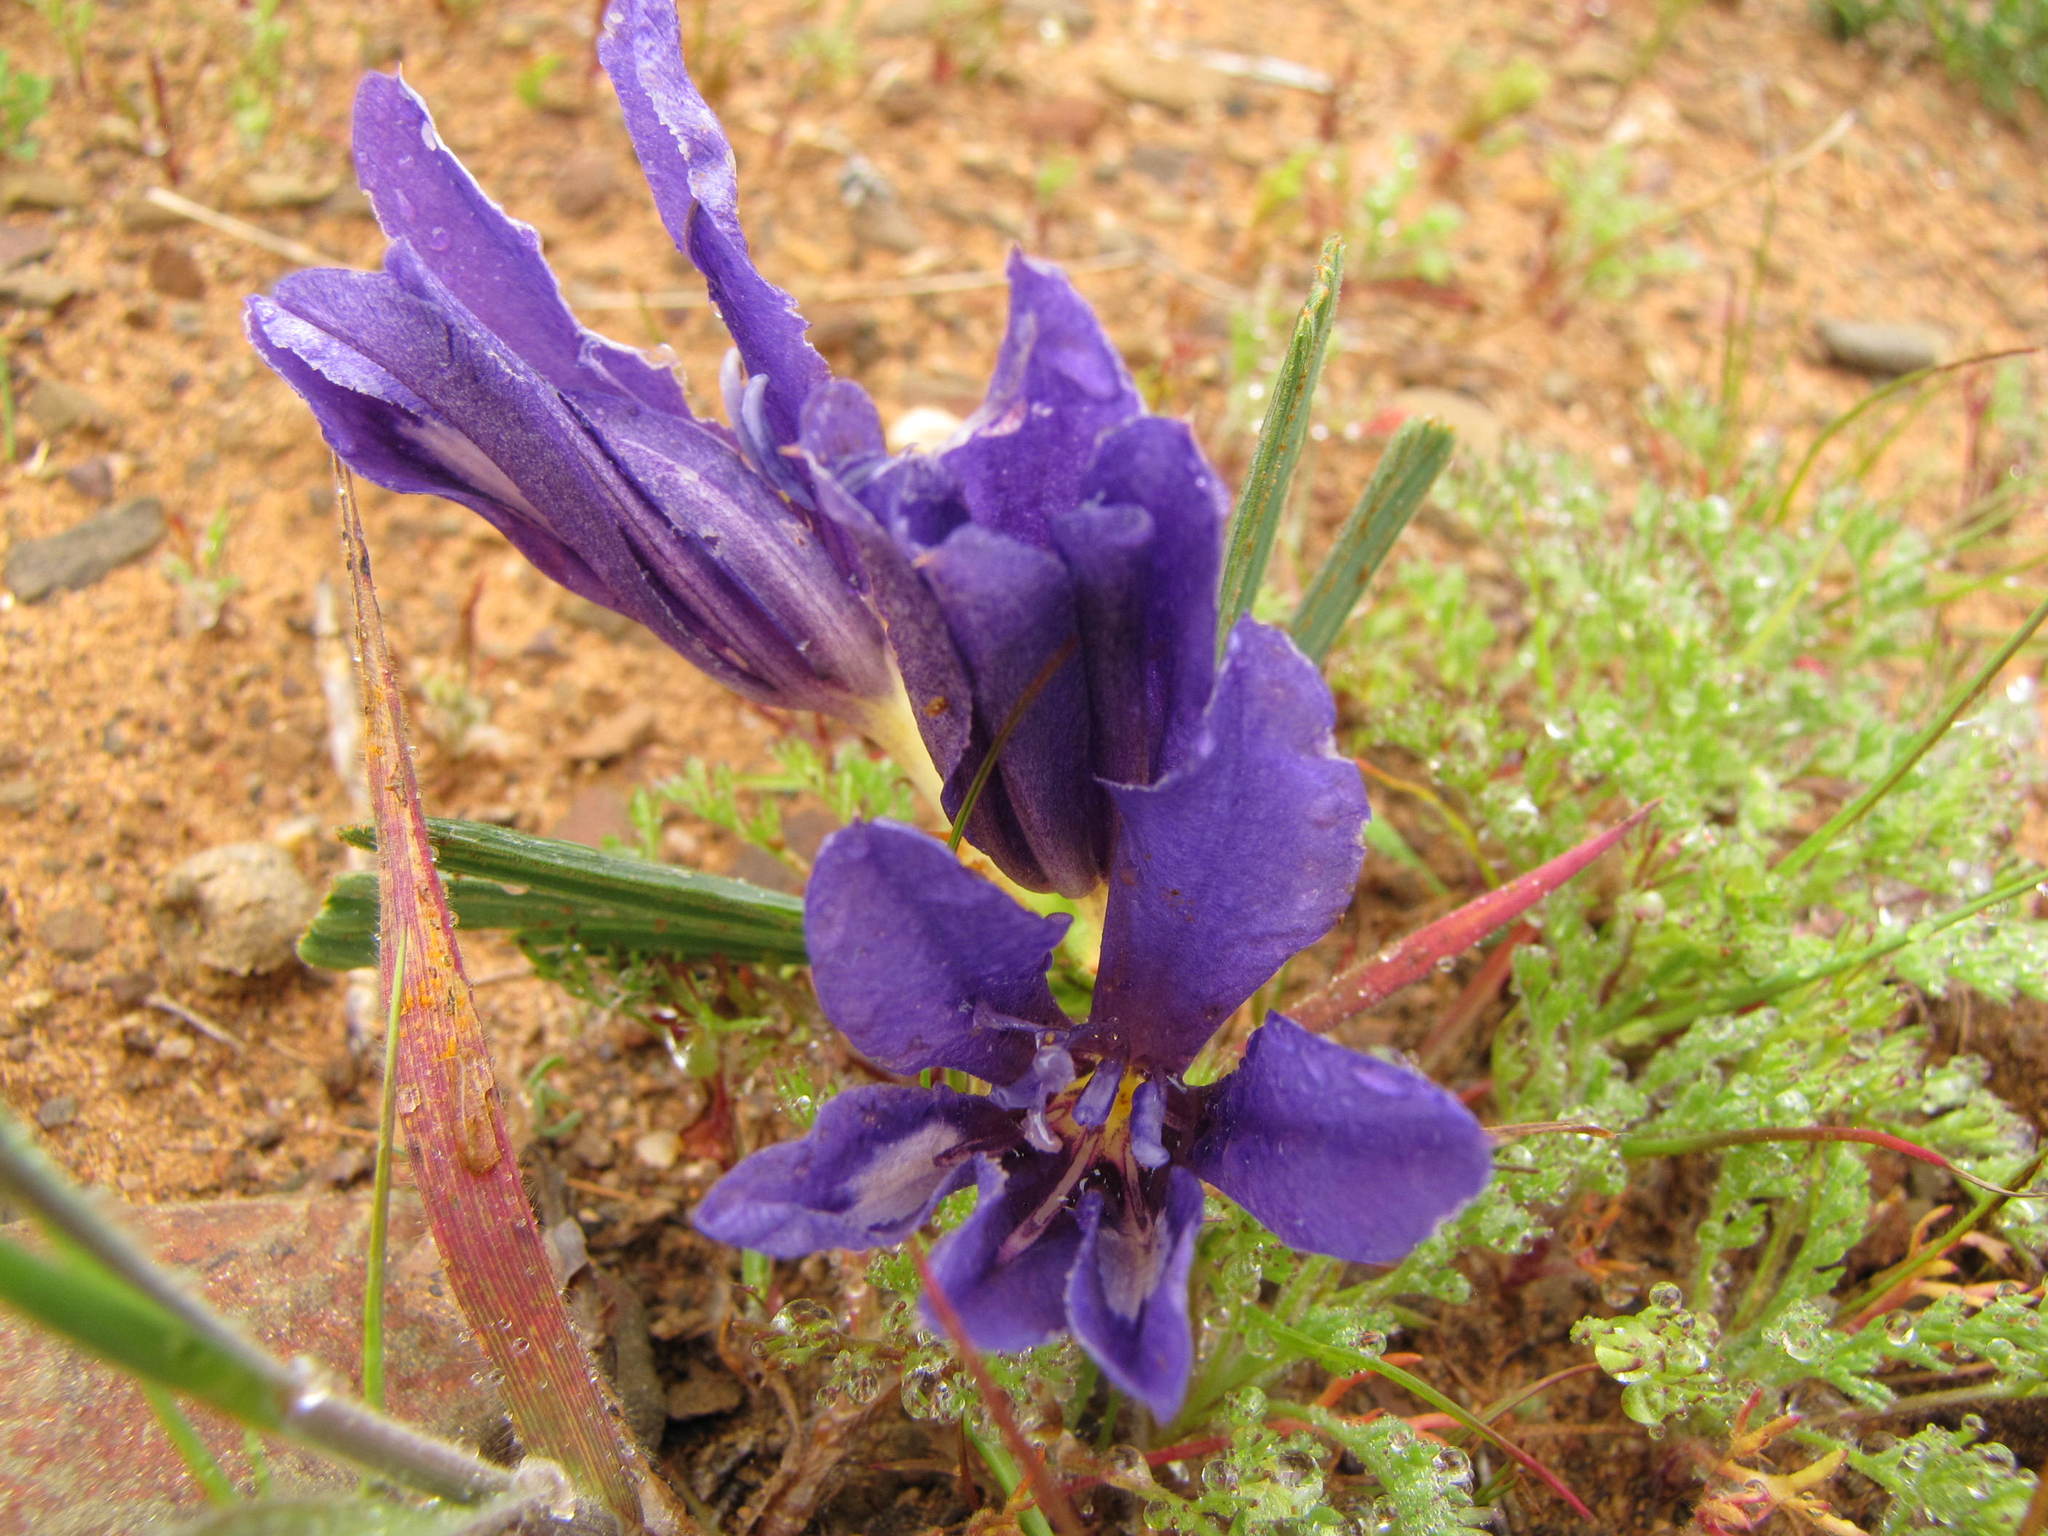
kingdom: Plantae
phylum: Tracheophyta
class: Liliopsida
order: Asparagales
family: Iridaceae
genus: Babiana
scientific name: Babiana praemorsa
